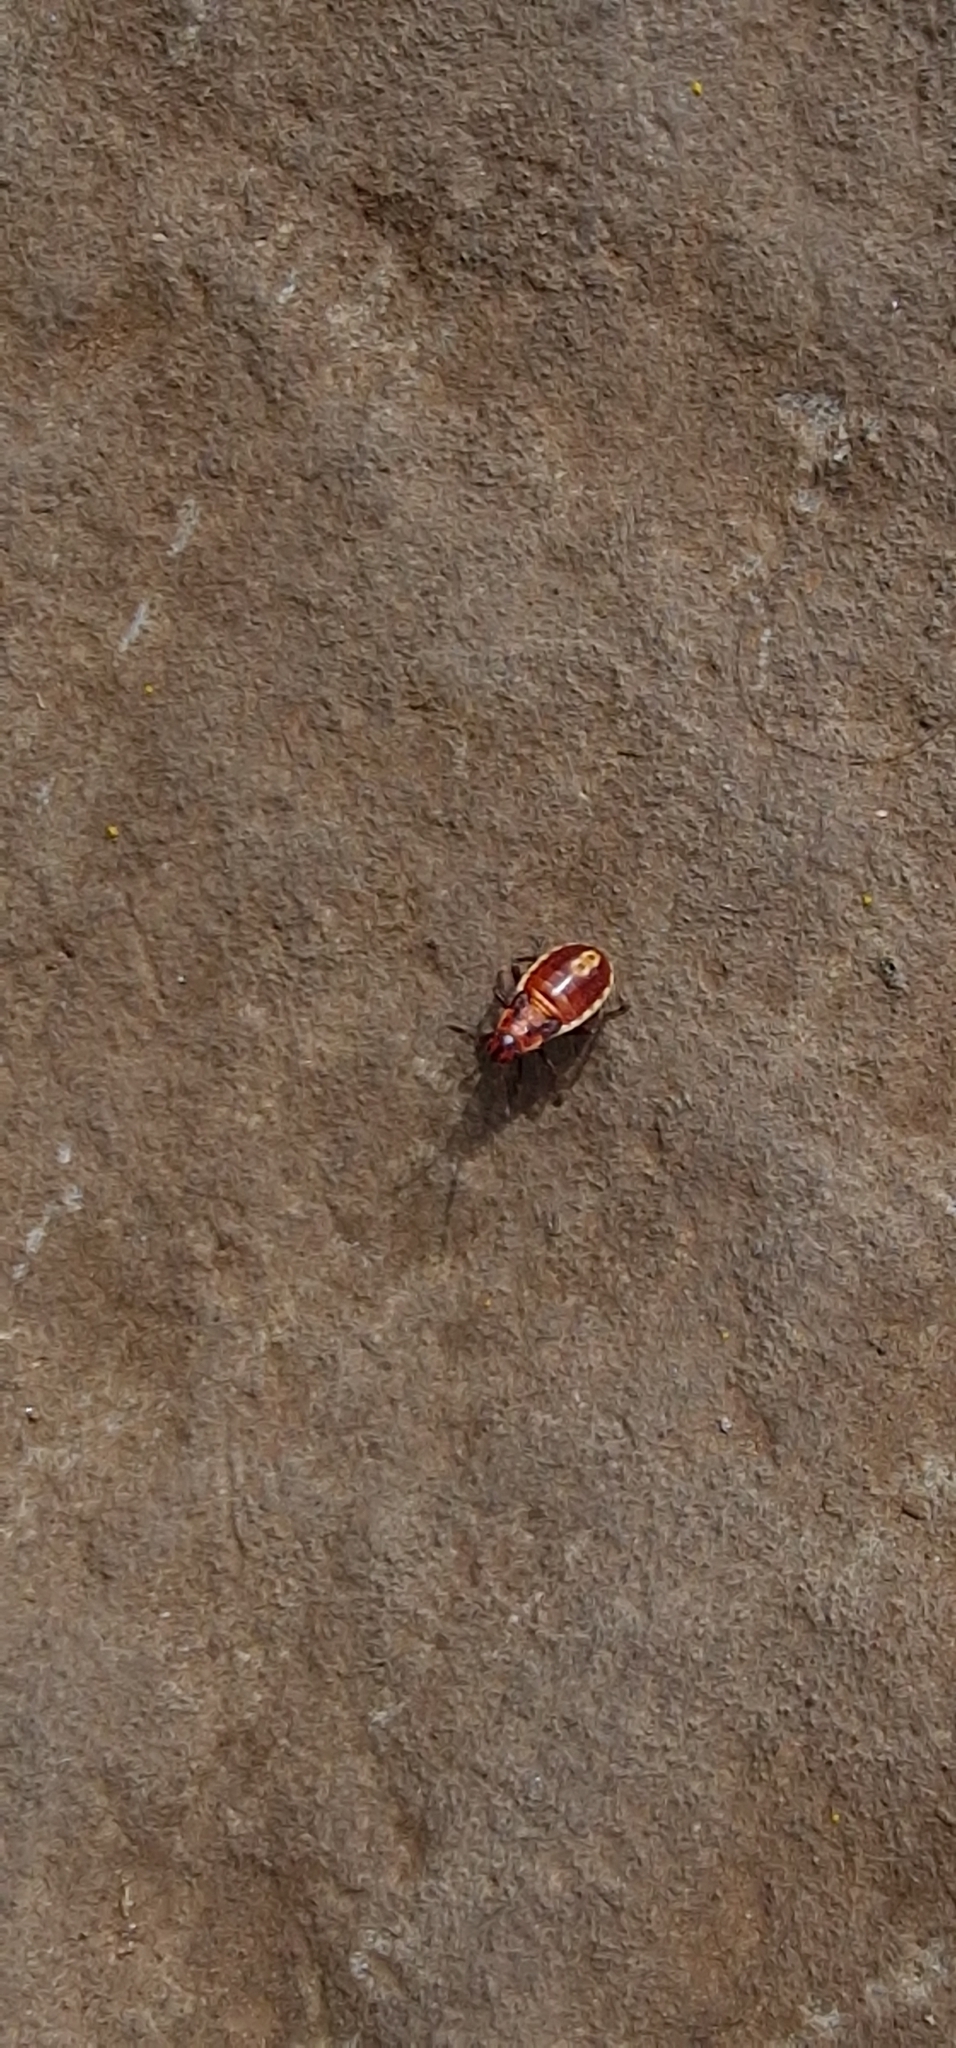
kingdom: Animalia
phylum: Arthropoda
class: Insecta
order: Hemiptera
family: Lygaeidae
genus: Spilostethus
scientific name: Spilostethus pandurus
